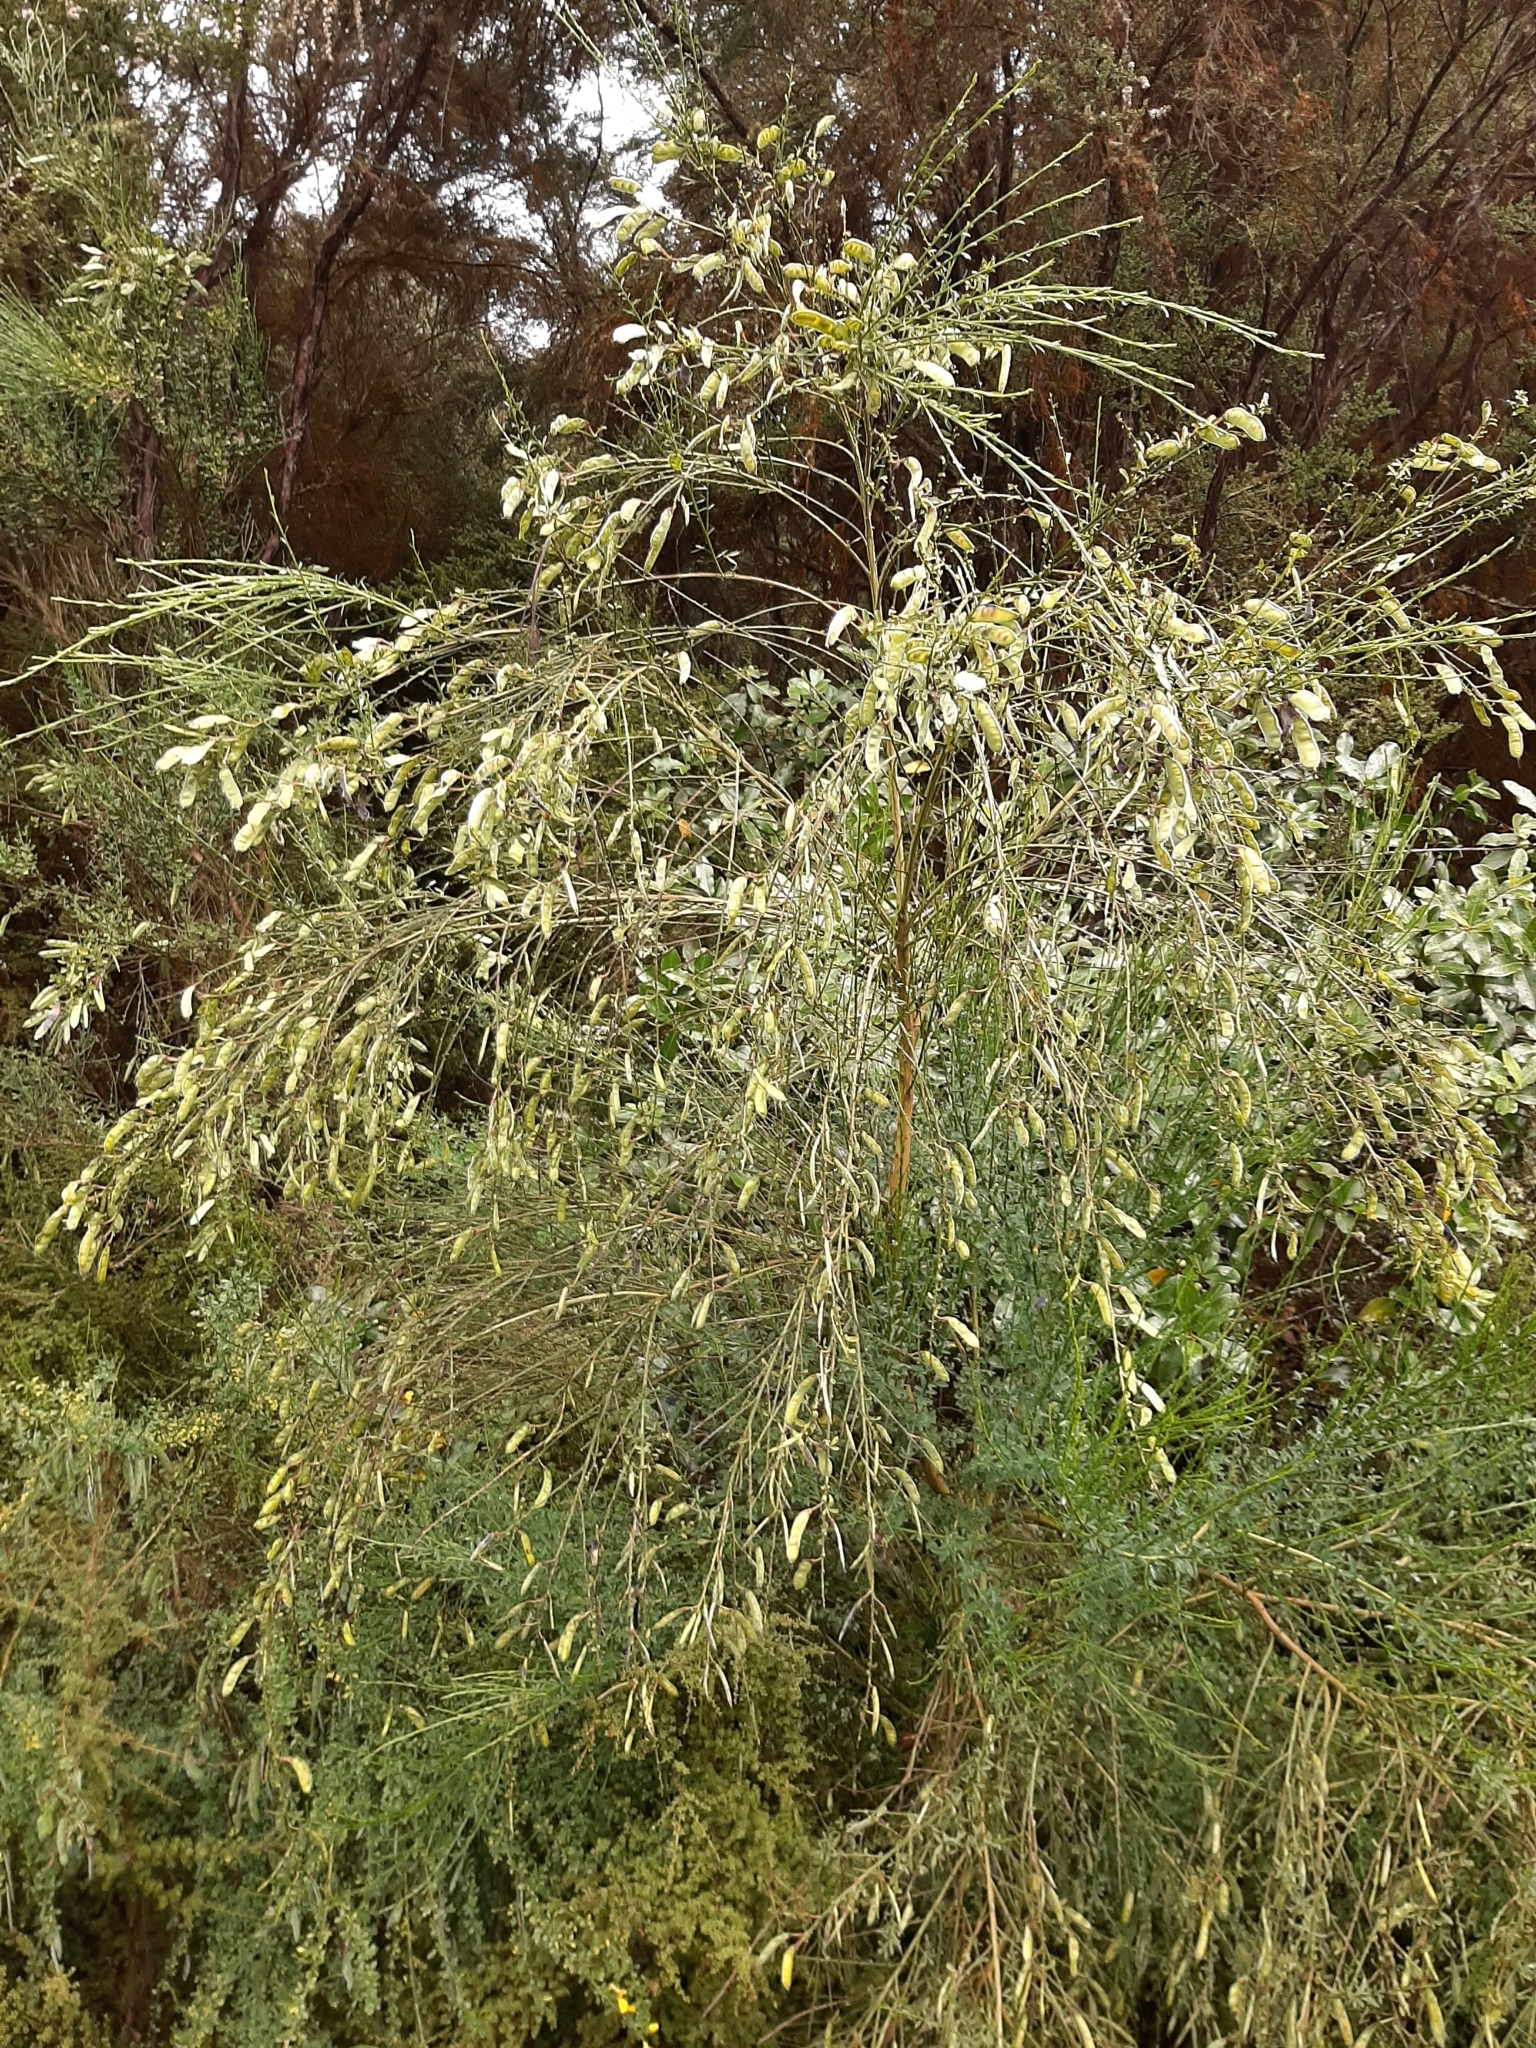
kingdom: Plantae
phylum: Tracheophyta
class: Magnoliopsida
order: Fabales
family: Fabaceae
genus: Cytisus
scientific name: Cytisus scoparius
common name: Scotch broom
